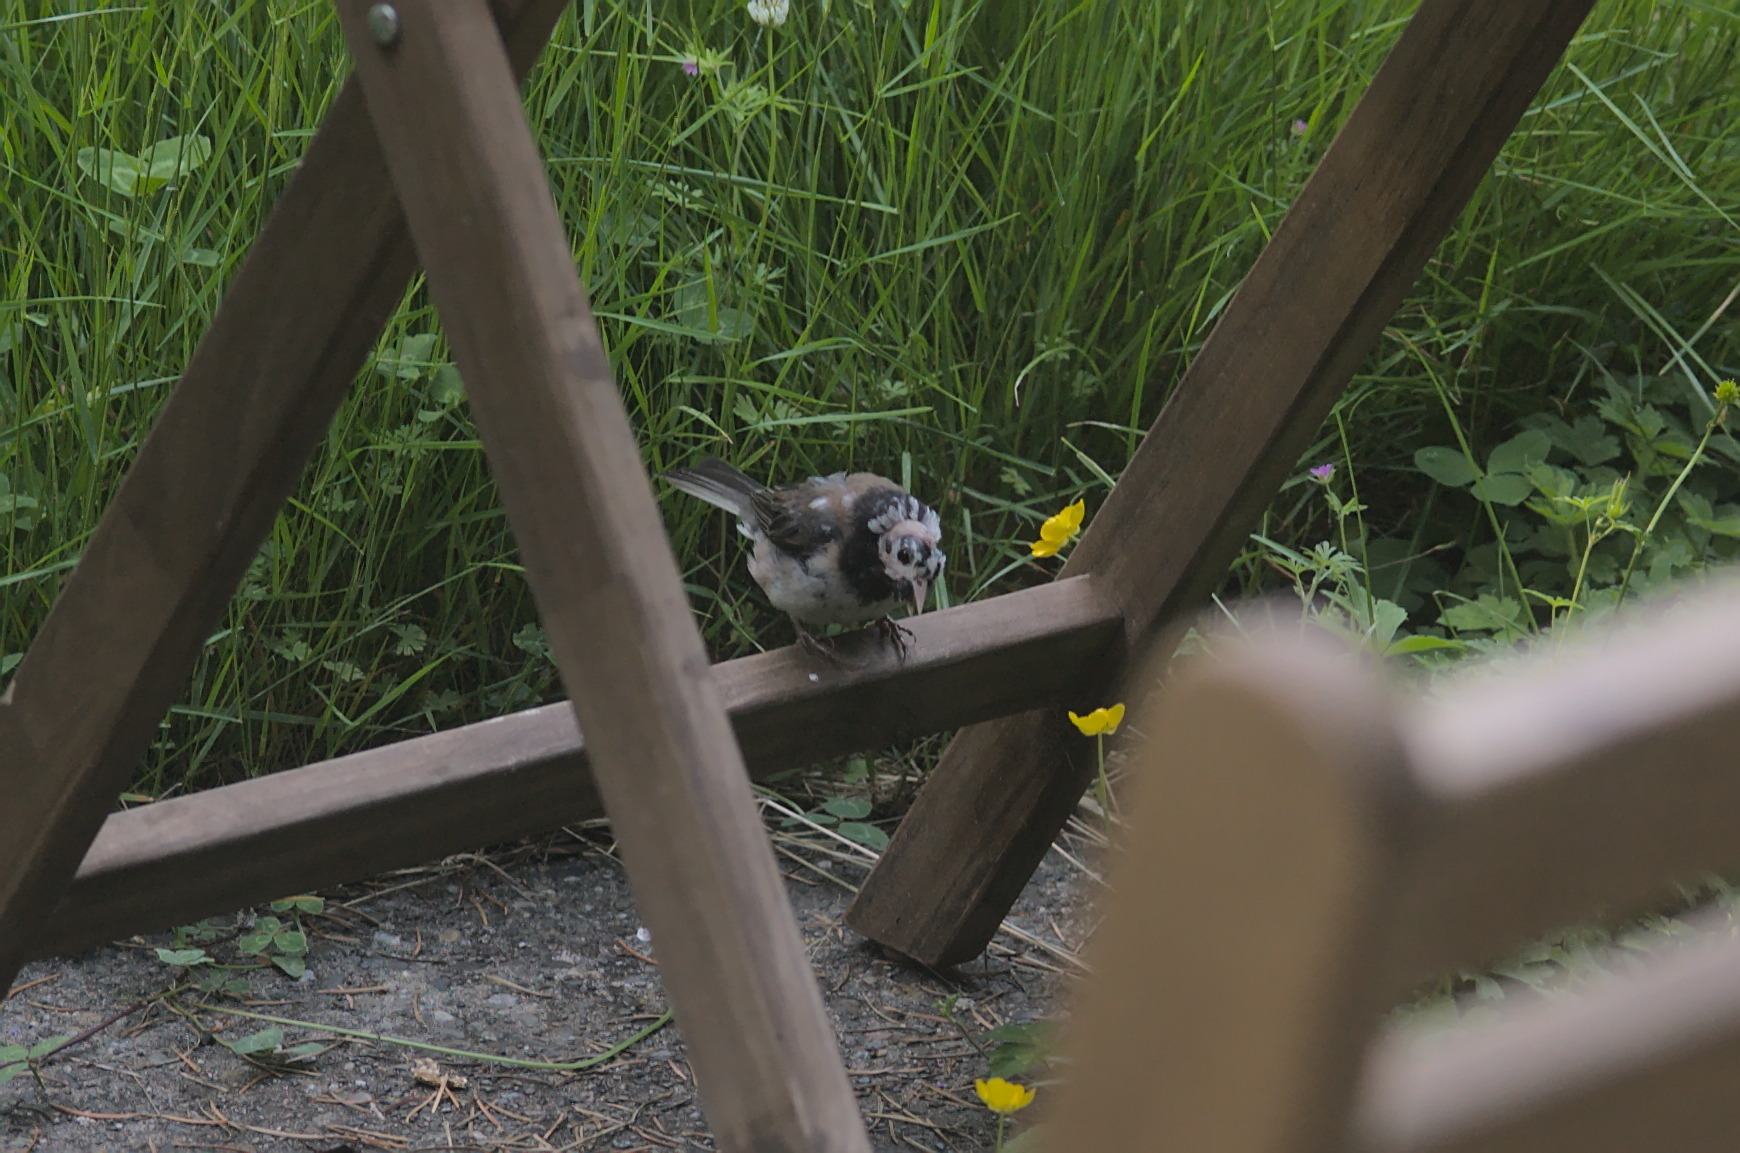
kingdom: Animalia
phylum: Chordata
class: Aves
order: Passeriformes
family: Passerellidae
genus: Junco
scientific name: Junco hyemalis
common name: Dark-eyed junco
